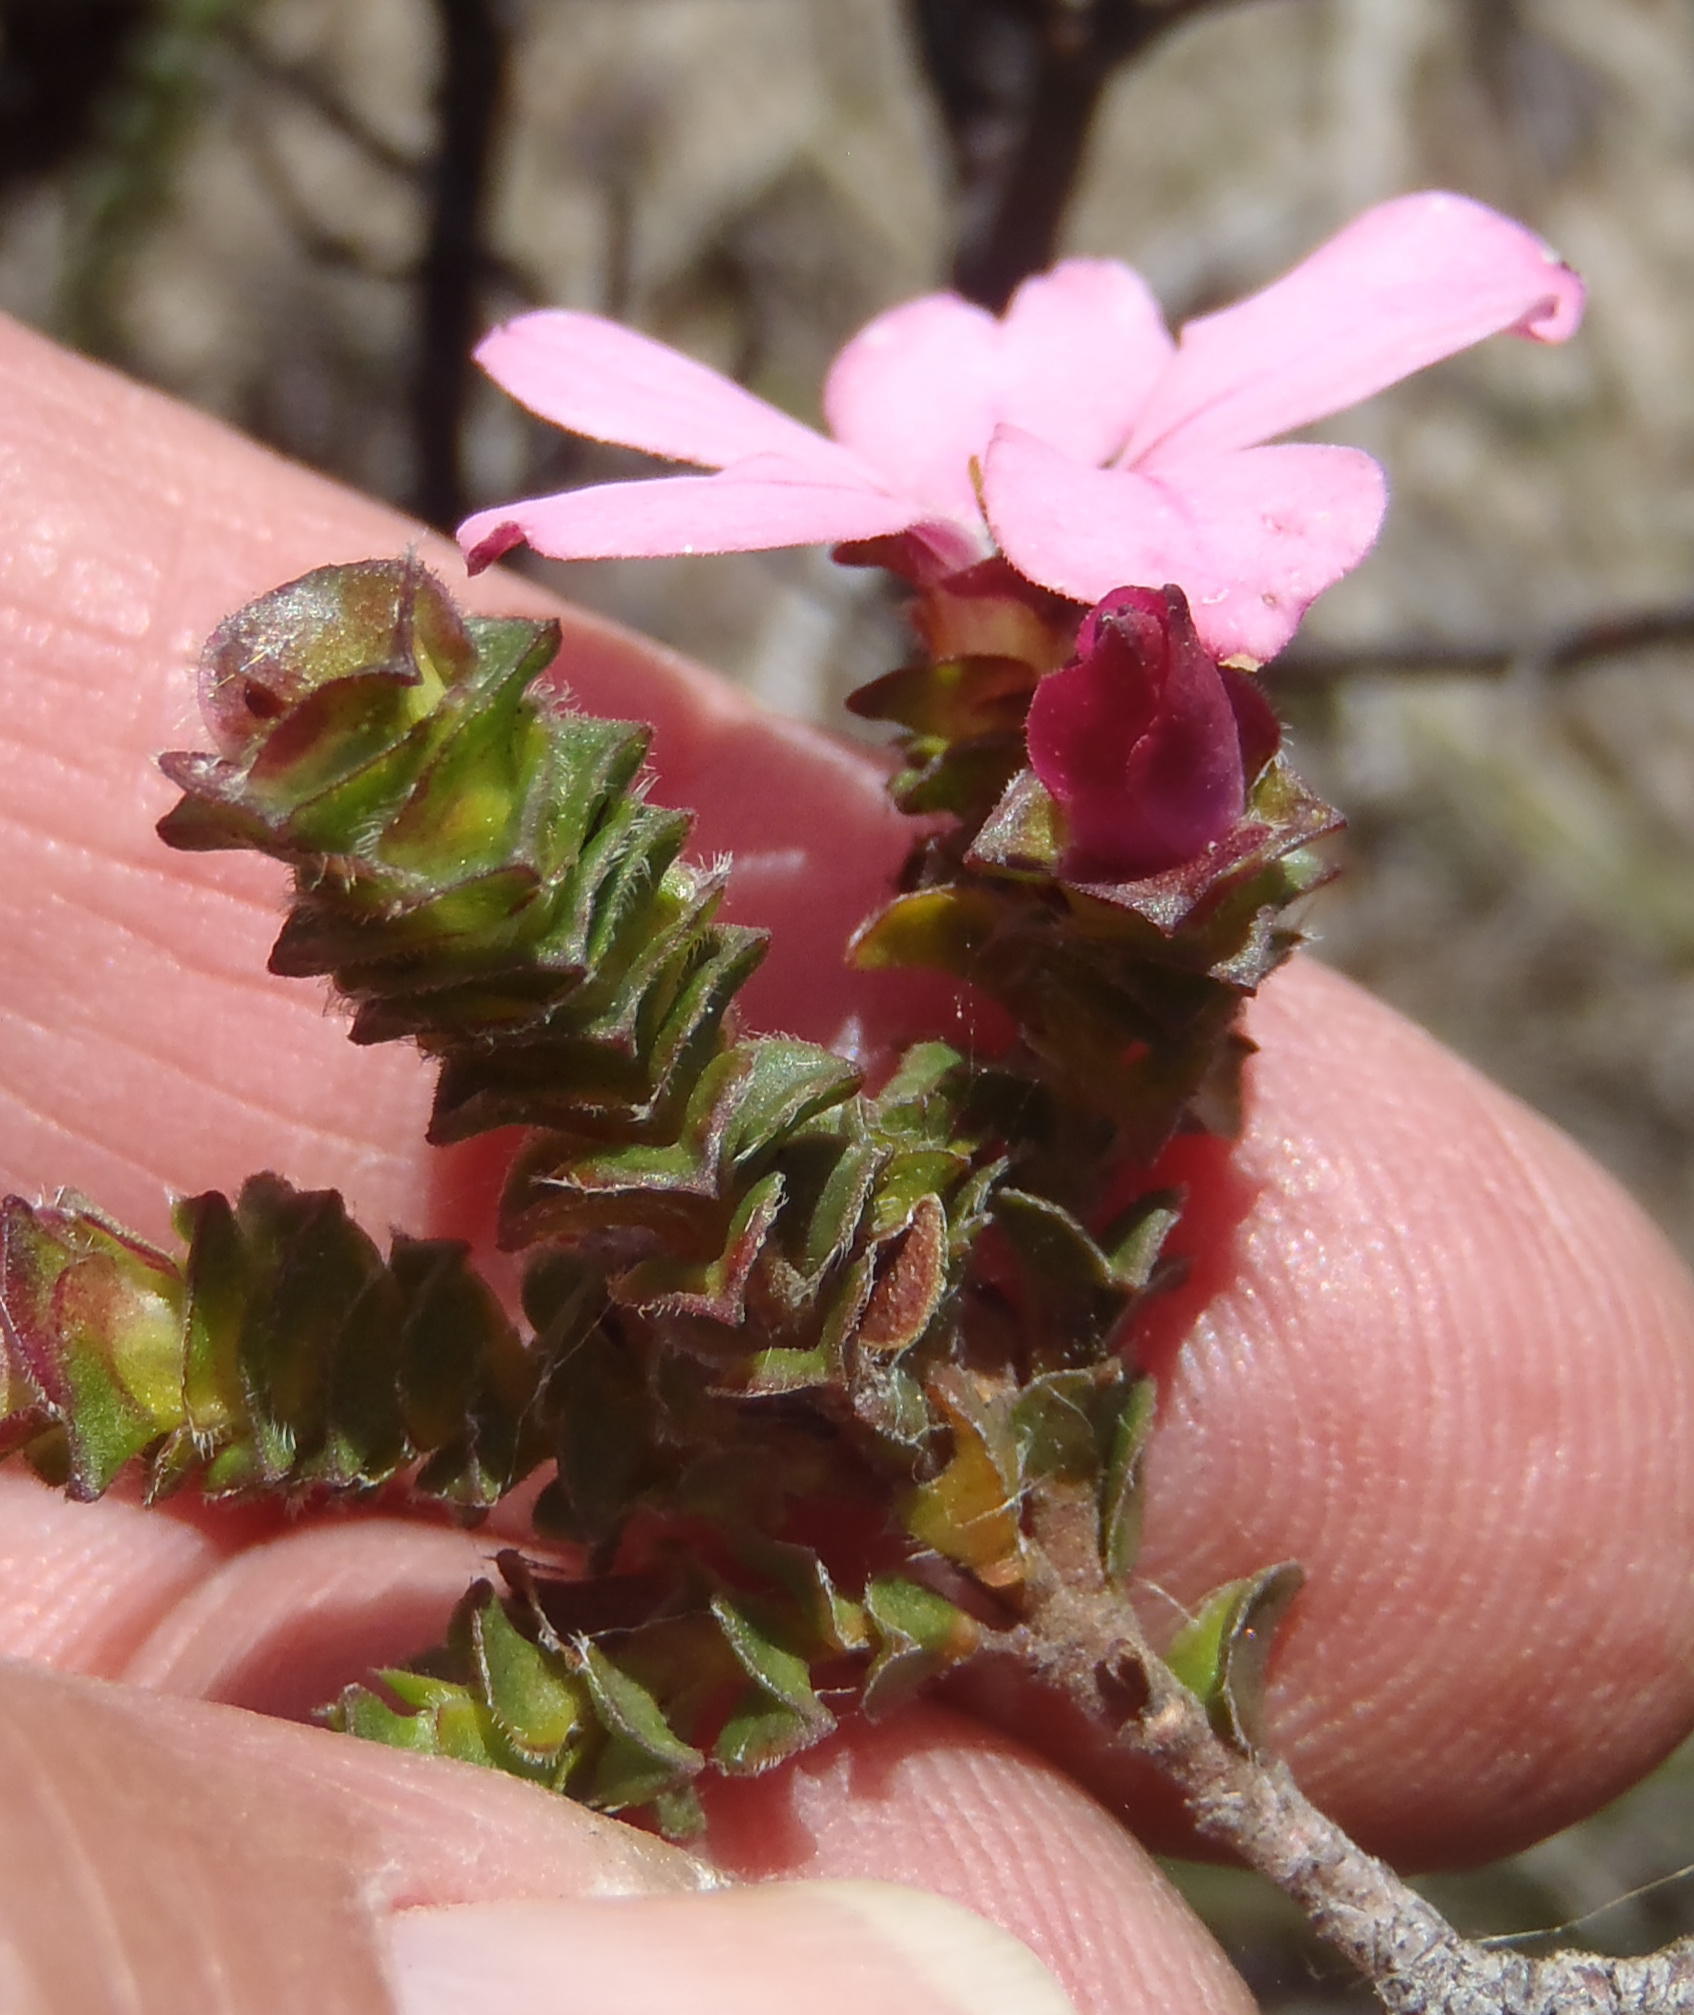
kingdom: Plantae
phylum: Tracheophyta
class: Magnoliopsida
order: Sapindales
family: Rutaceae
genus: Acmadenia
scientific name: Acmadenia tetragona
